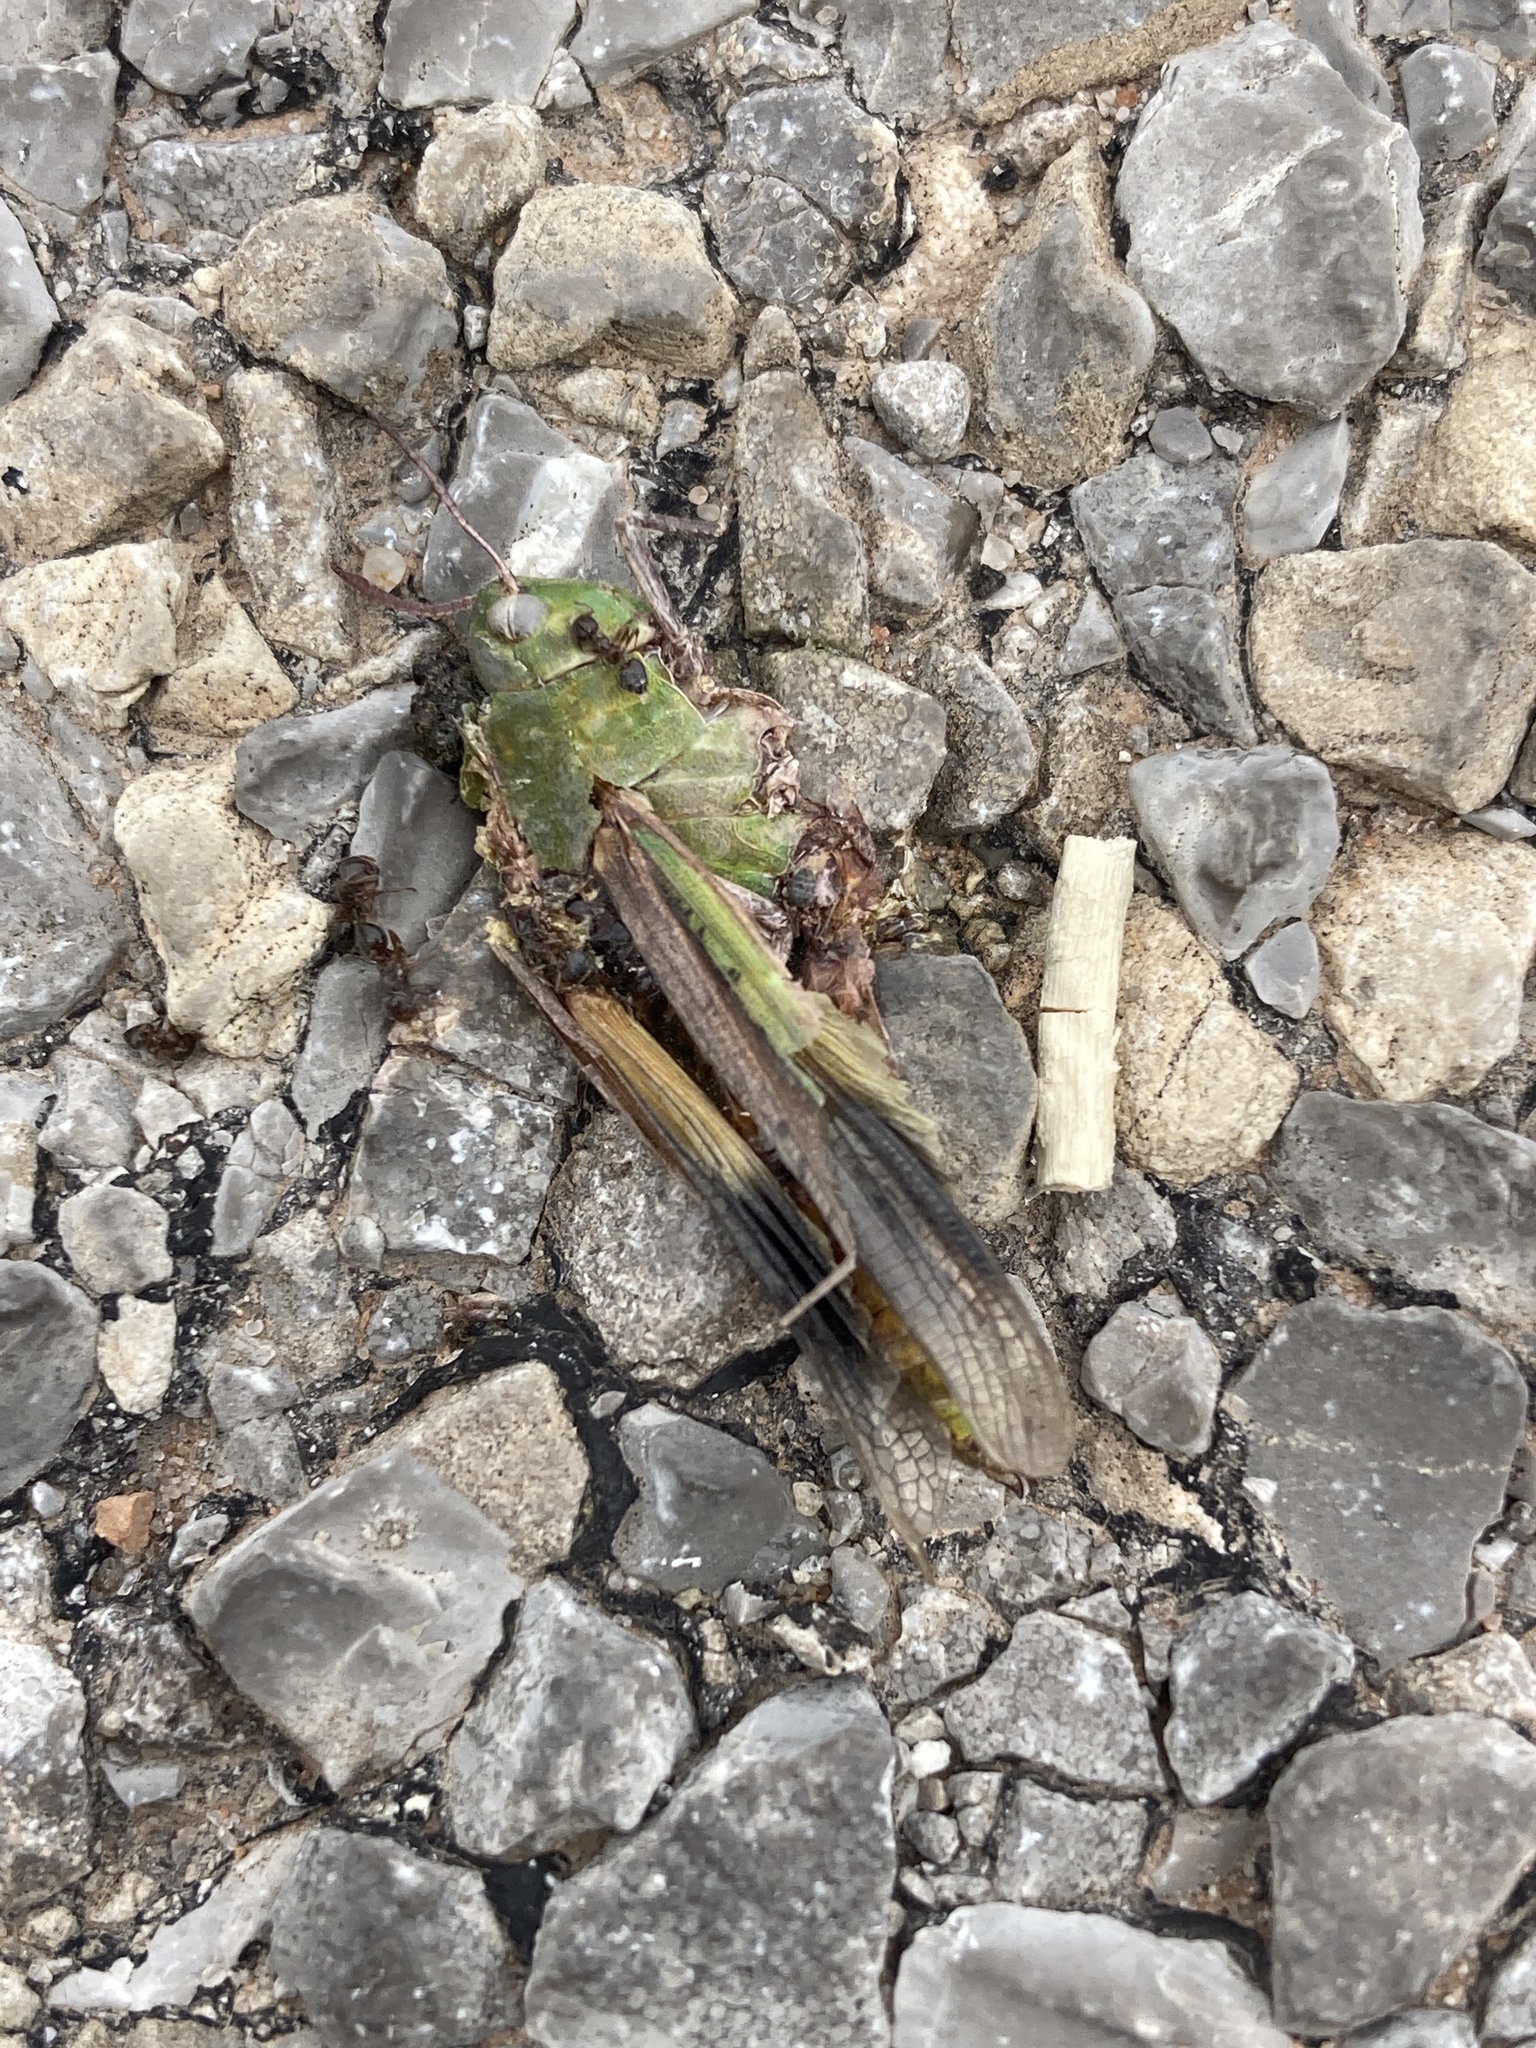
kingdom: Animalia
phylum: Arthropoda
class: Insecta
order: Orthoptera
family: Acrididae
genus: Chortophaga
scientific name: Chortophaga viridifasciata
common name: Green-striped grasshopper
